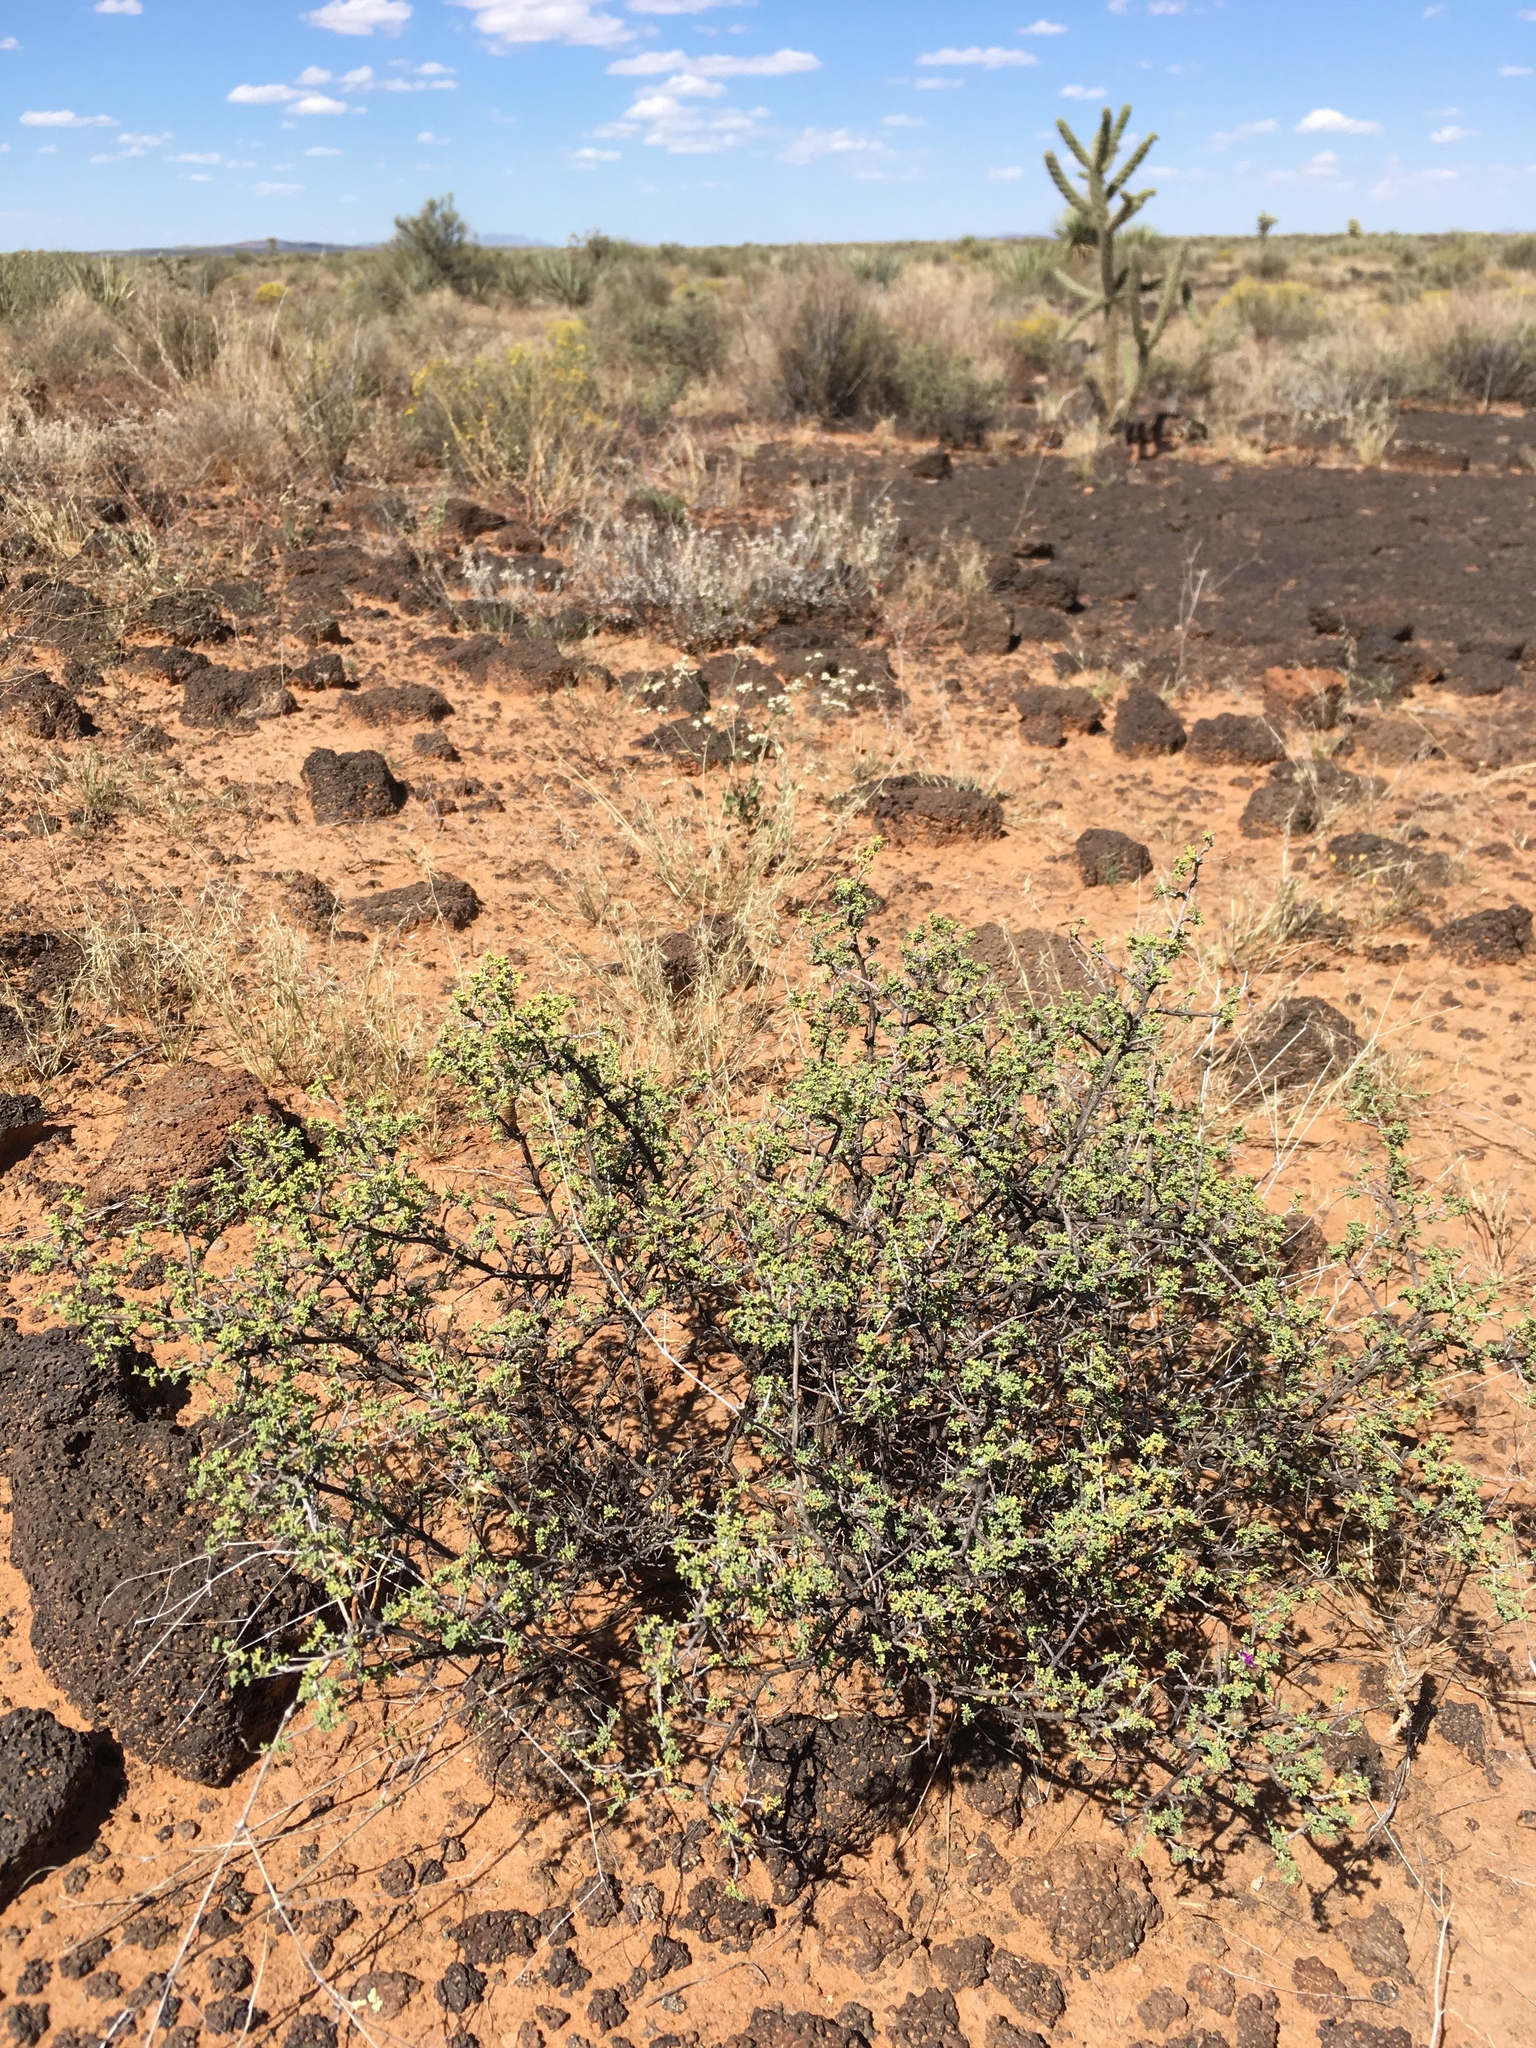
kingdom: Plantae
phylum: Tracheophyta
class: Magnoliopsida
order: Fabales
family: Fabaceae
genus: Dalea
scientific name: Dalea formosa
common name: Feather-plume dalea
